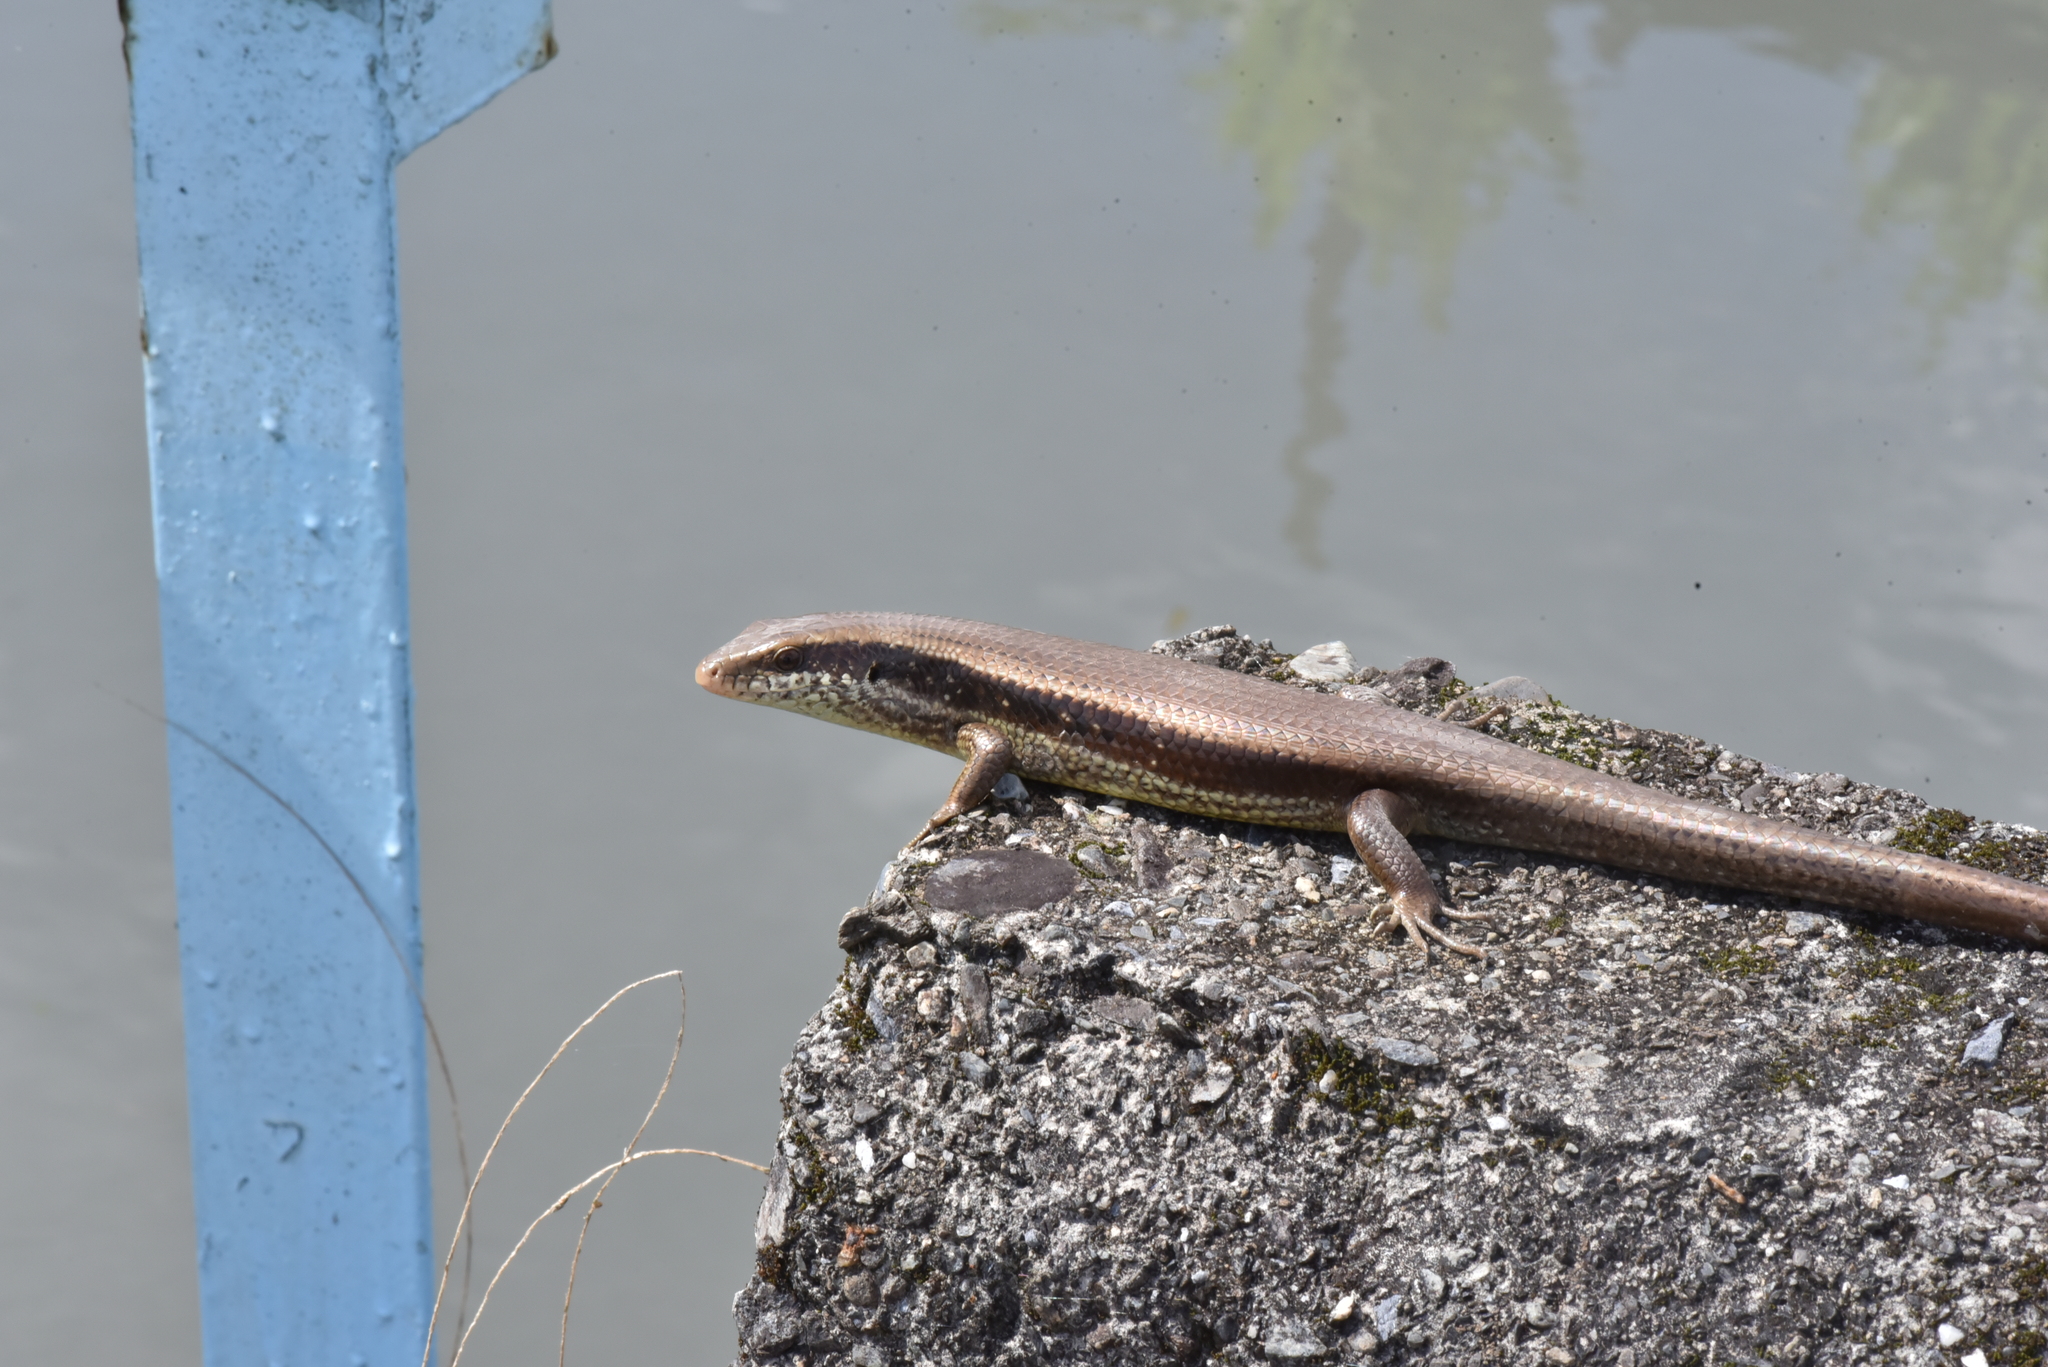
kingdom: Animalia
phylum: Chordata
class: Squamata
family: Scincidae
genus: Eutropis
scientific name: Eutropis longicaudata
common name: Long-tailed sun skink
